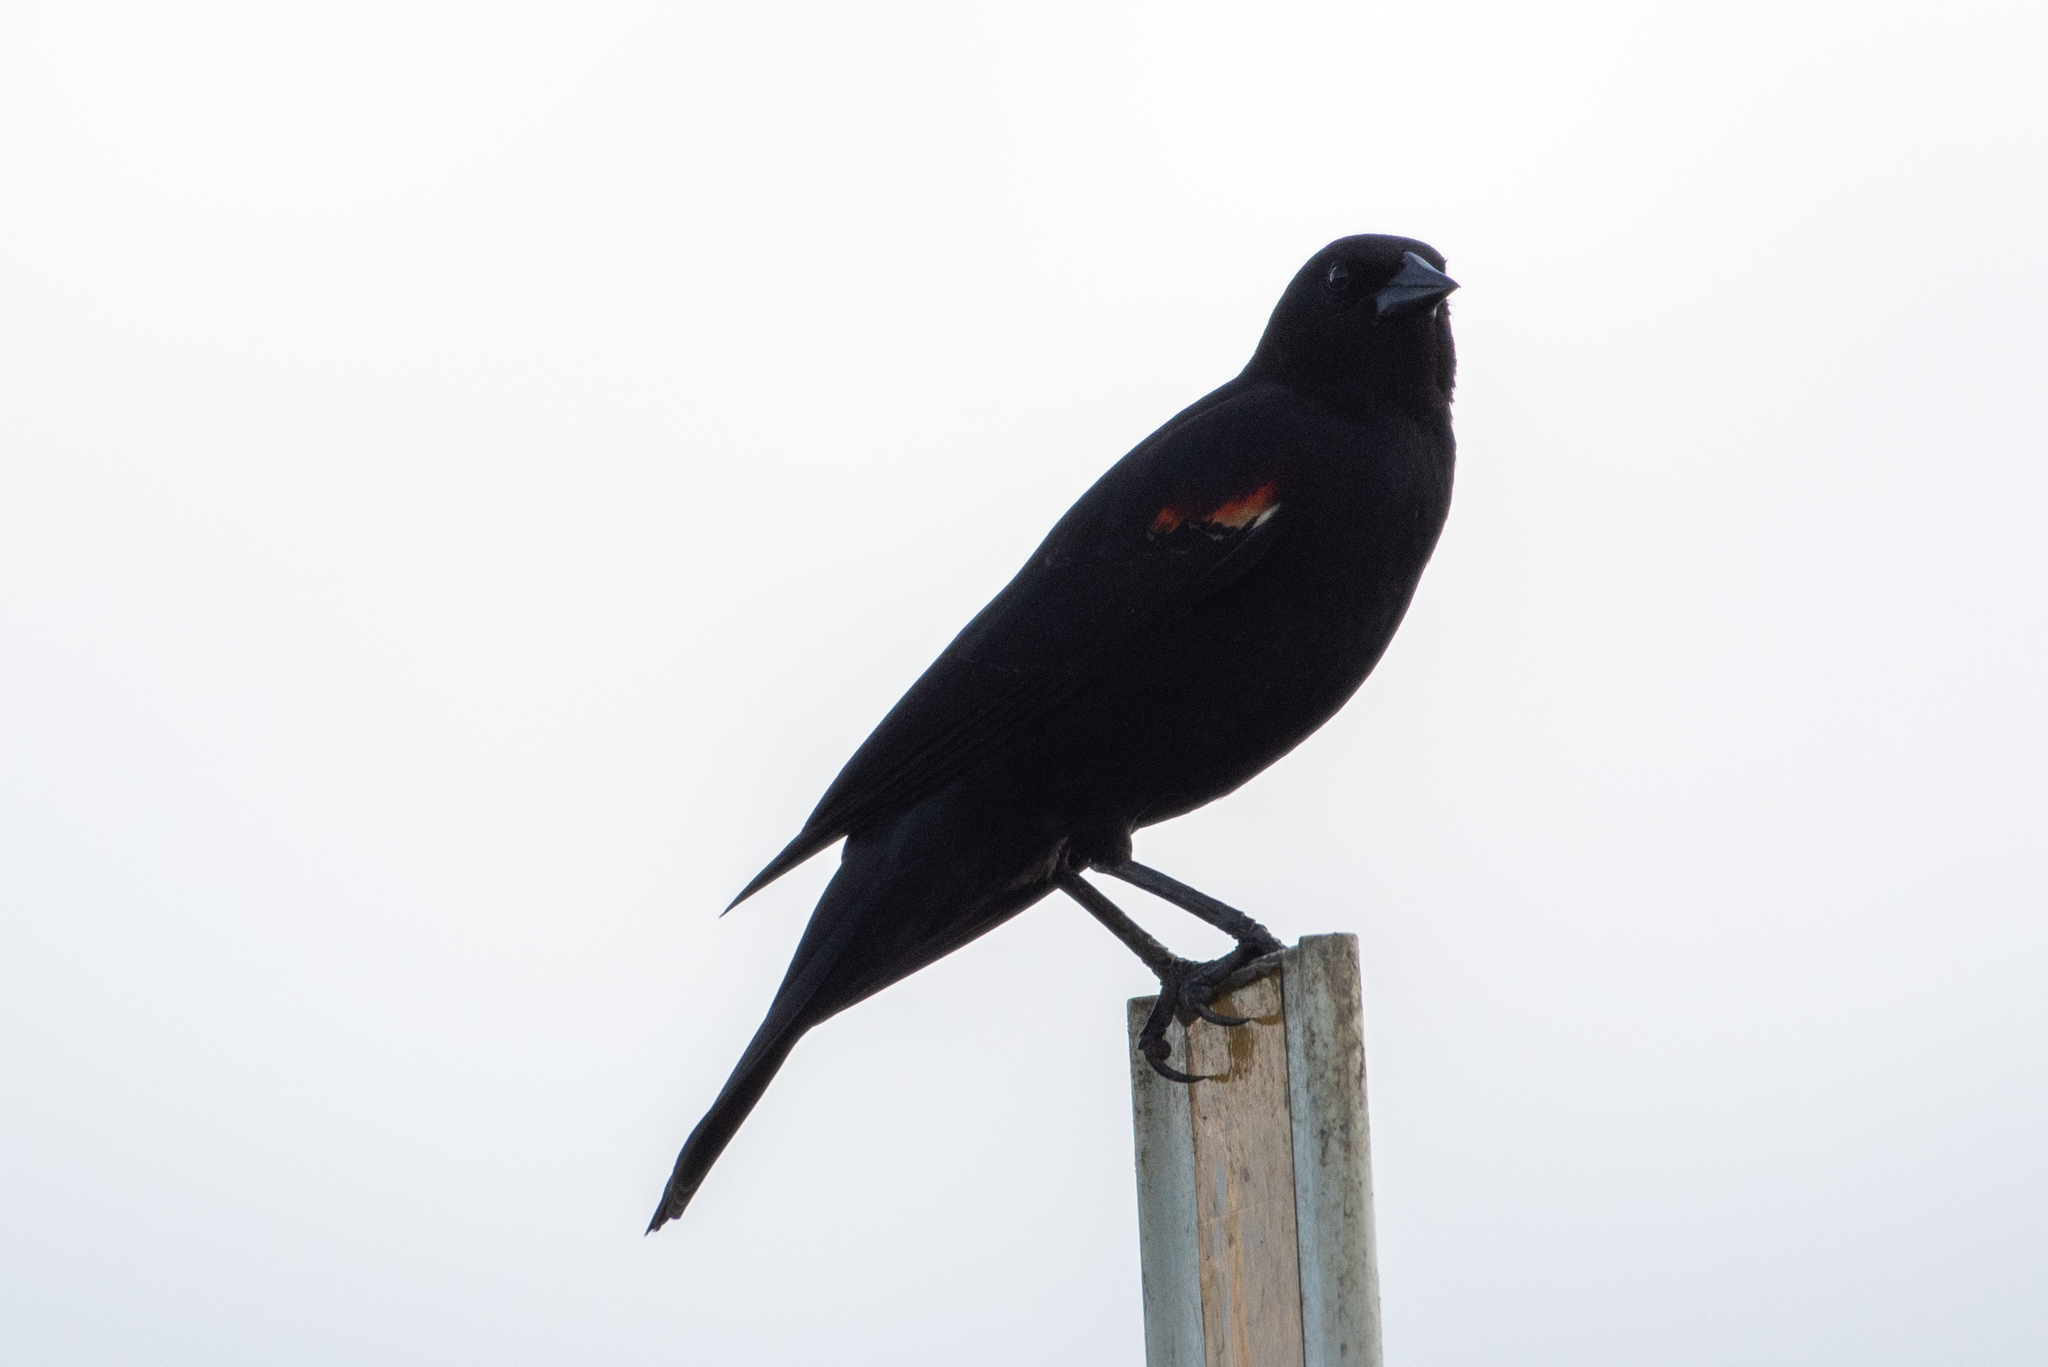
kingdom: Animalia
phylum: Chordata
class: Aves
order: Passeriformes
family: Icteridae
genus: Agelaius
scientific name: Agelaius phoeniceus
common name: Red-winged blackbird
